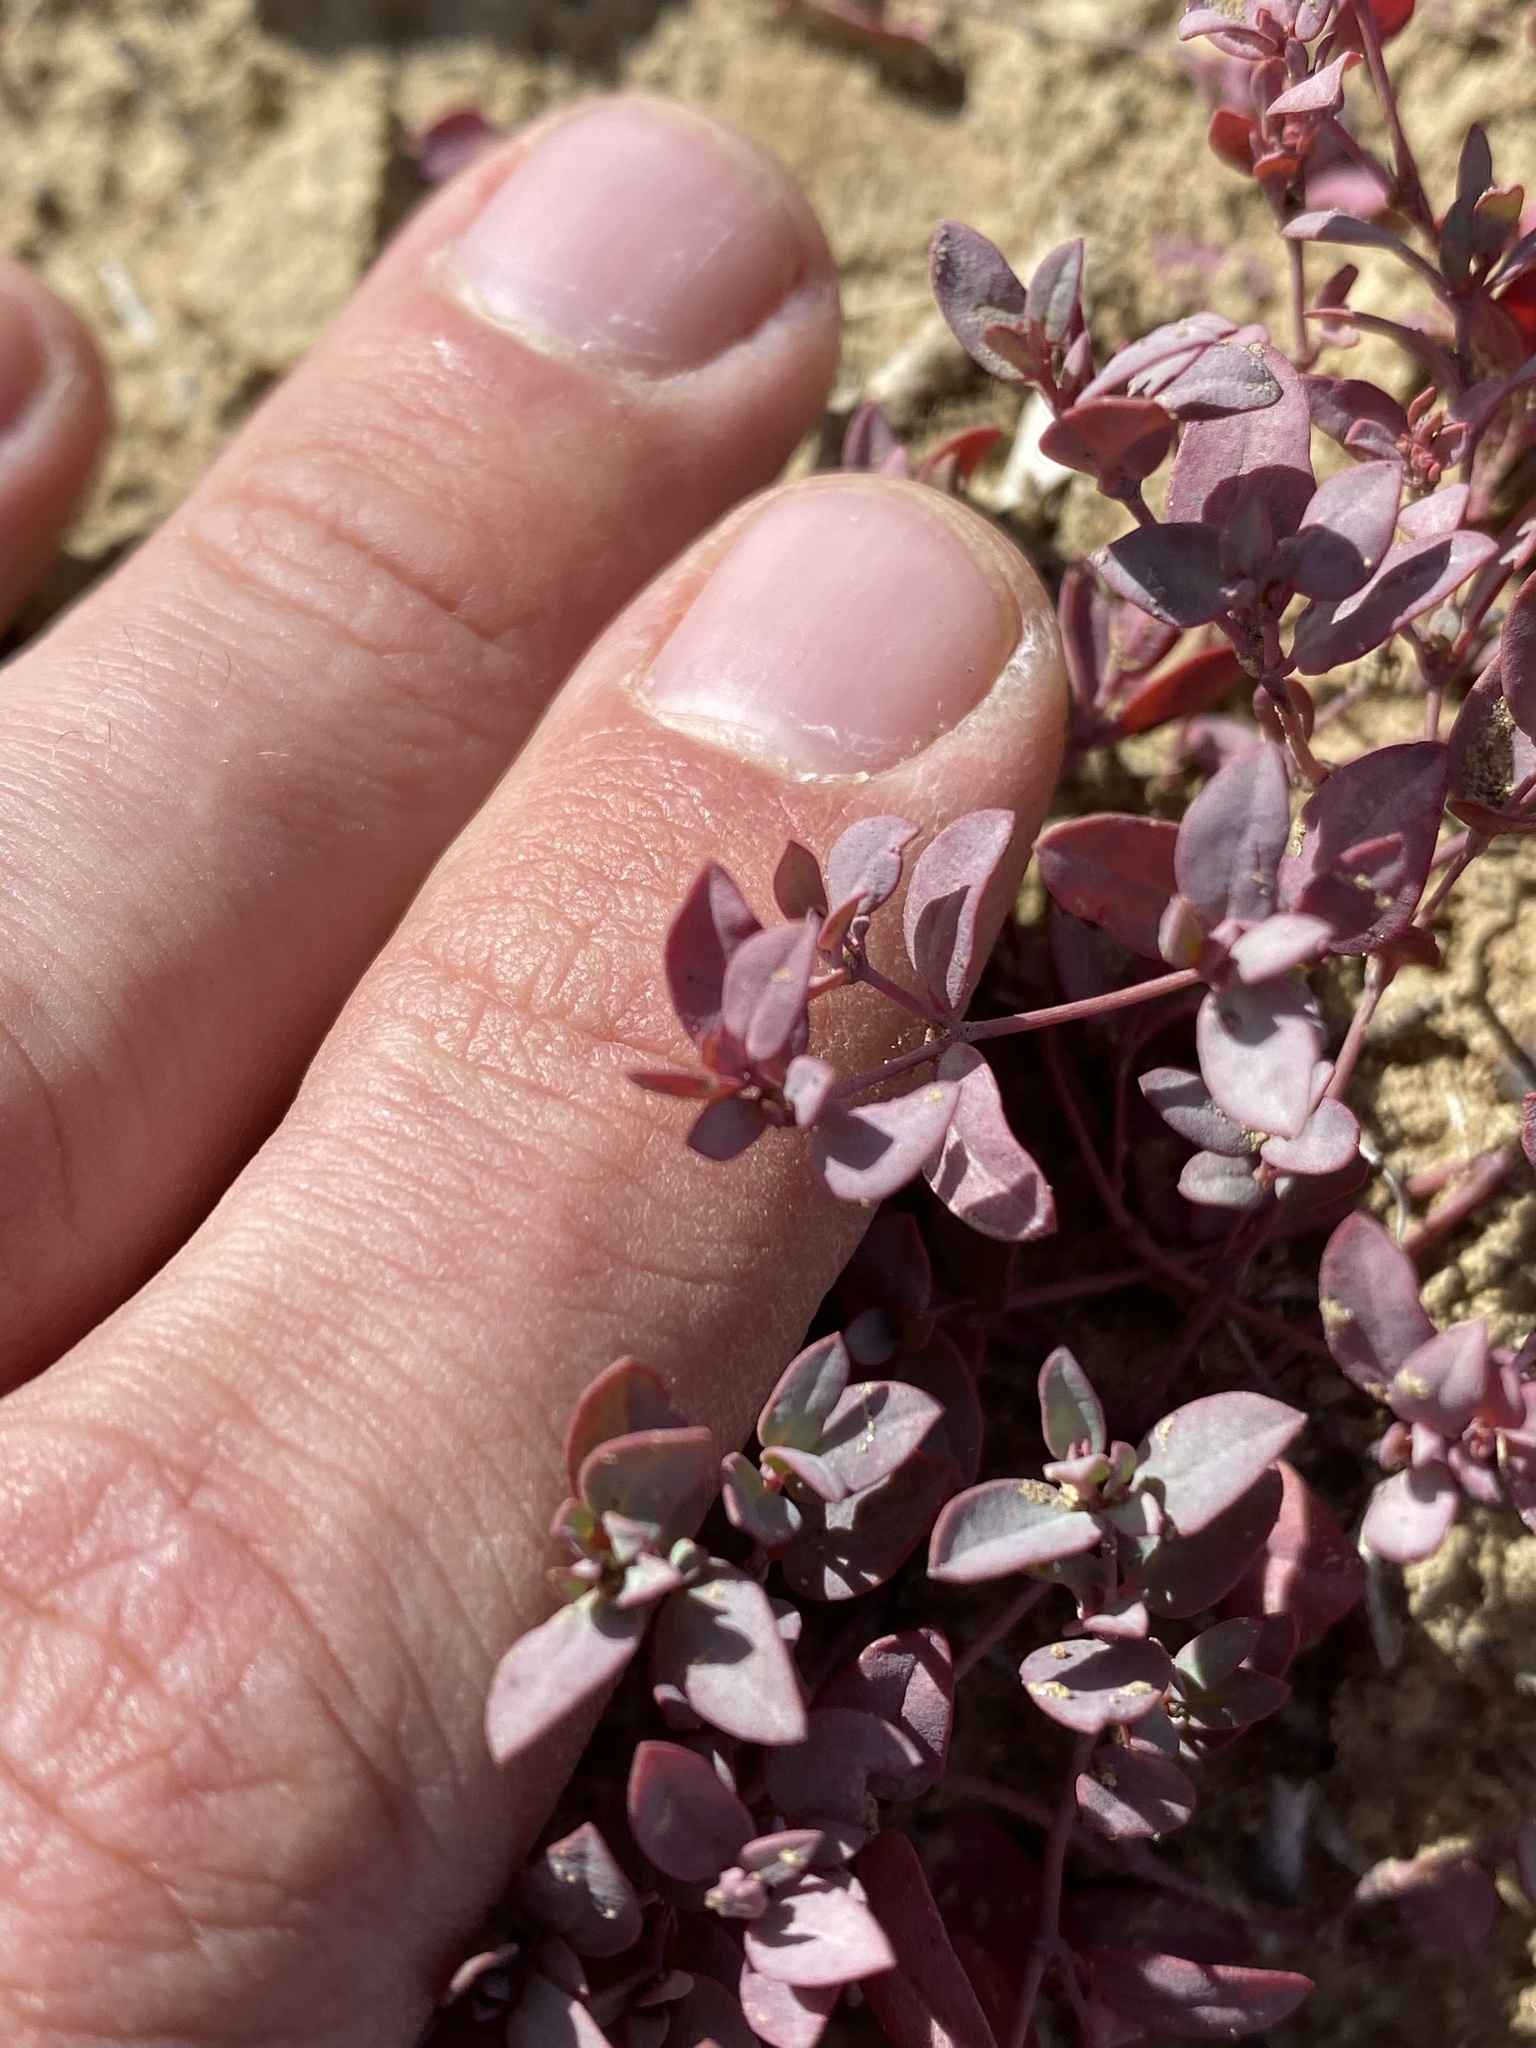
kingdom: Plantae
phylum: Tracheophyta
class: Magnoliopsida
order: Malpighiales
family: Euphorbiaceae
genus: Euphorbia
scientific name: Euphorbia fendleri
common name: Fendler's euphorbia
